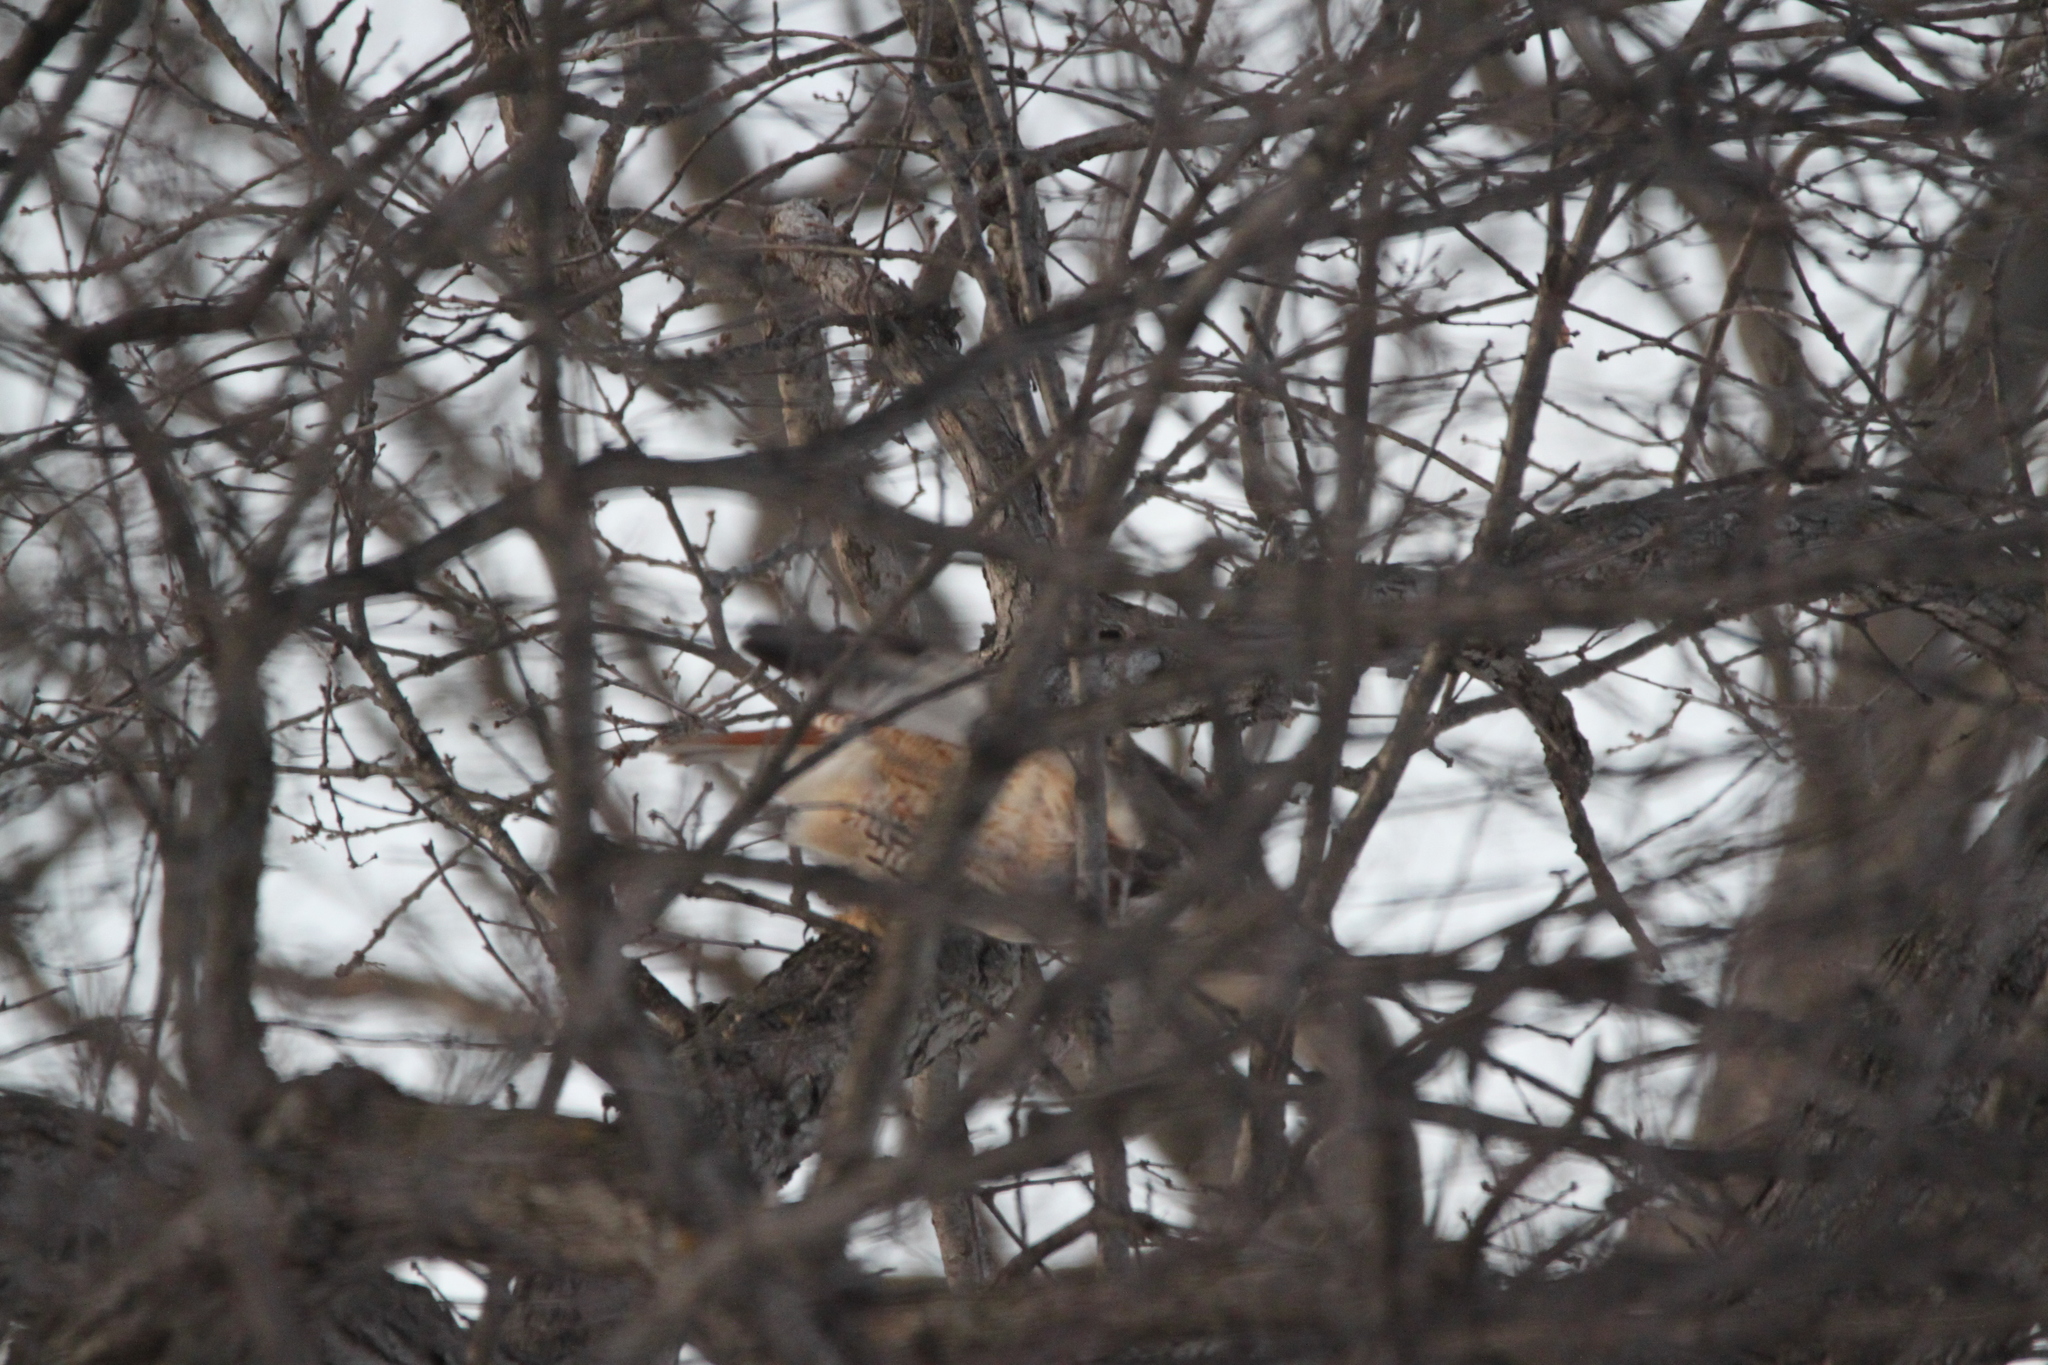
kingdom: Animalia
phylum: Chordata
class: Aves
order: Accipitriformes
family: Accipitridae
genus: Buteo
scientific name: Buteo jamaicensis
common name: Red-tailed hawk
